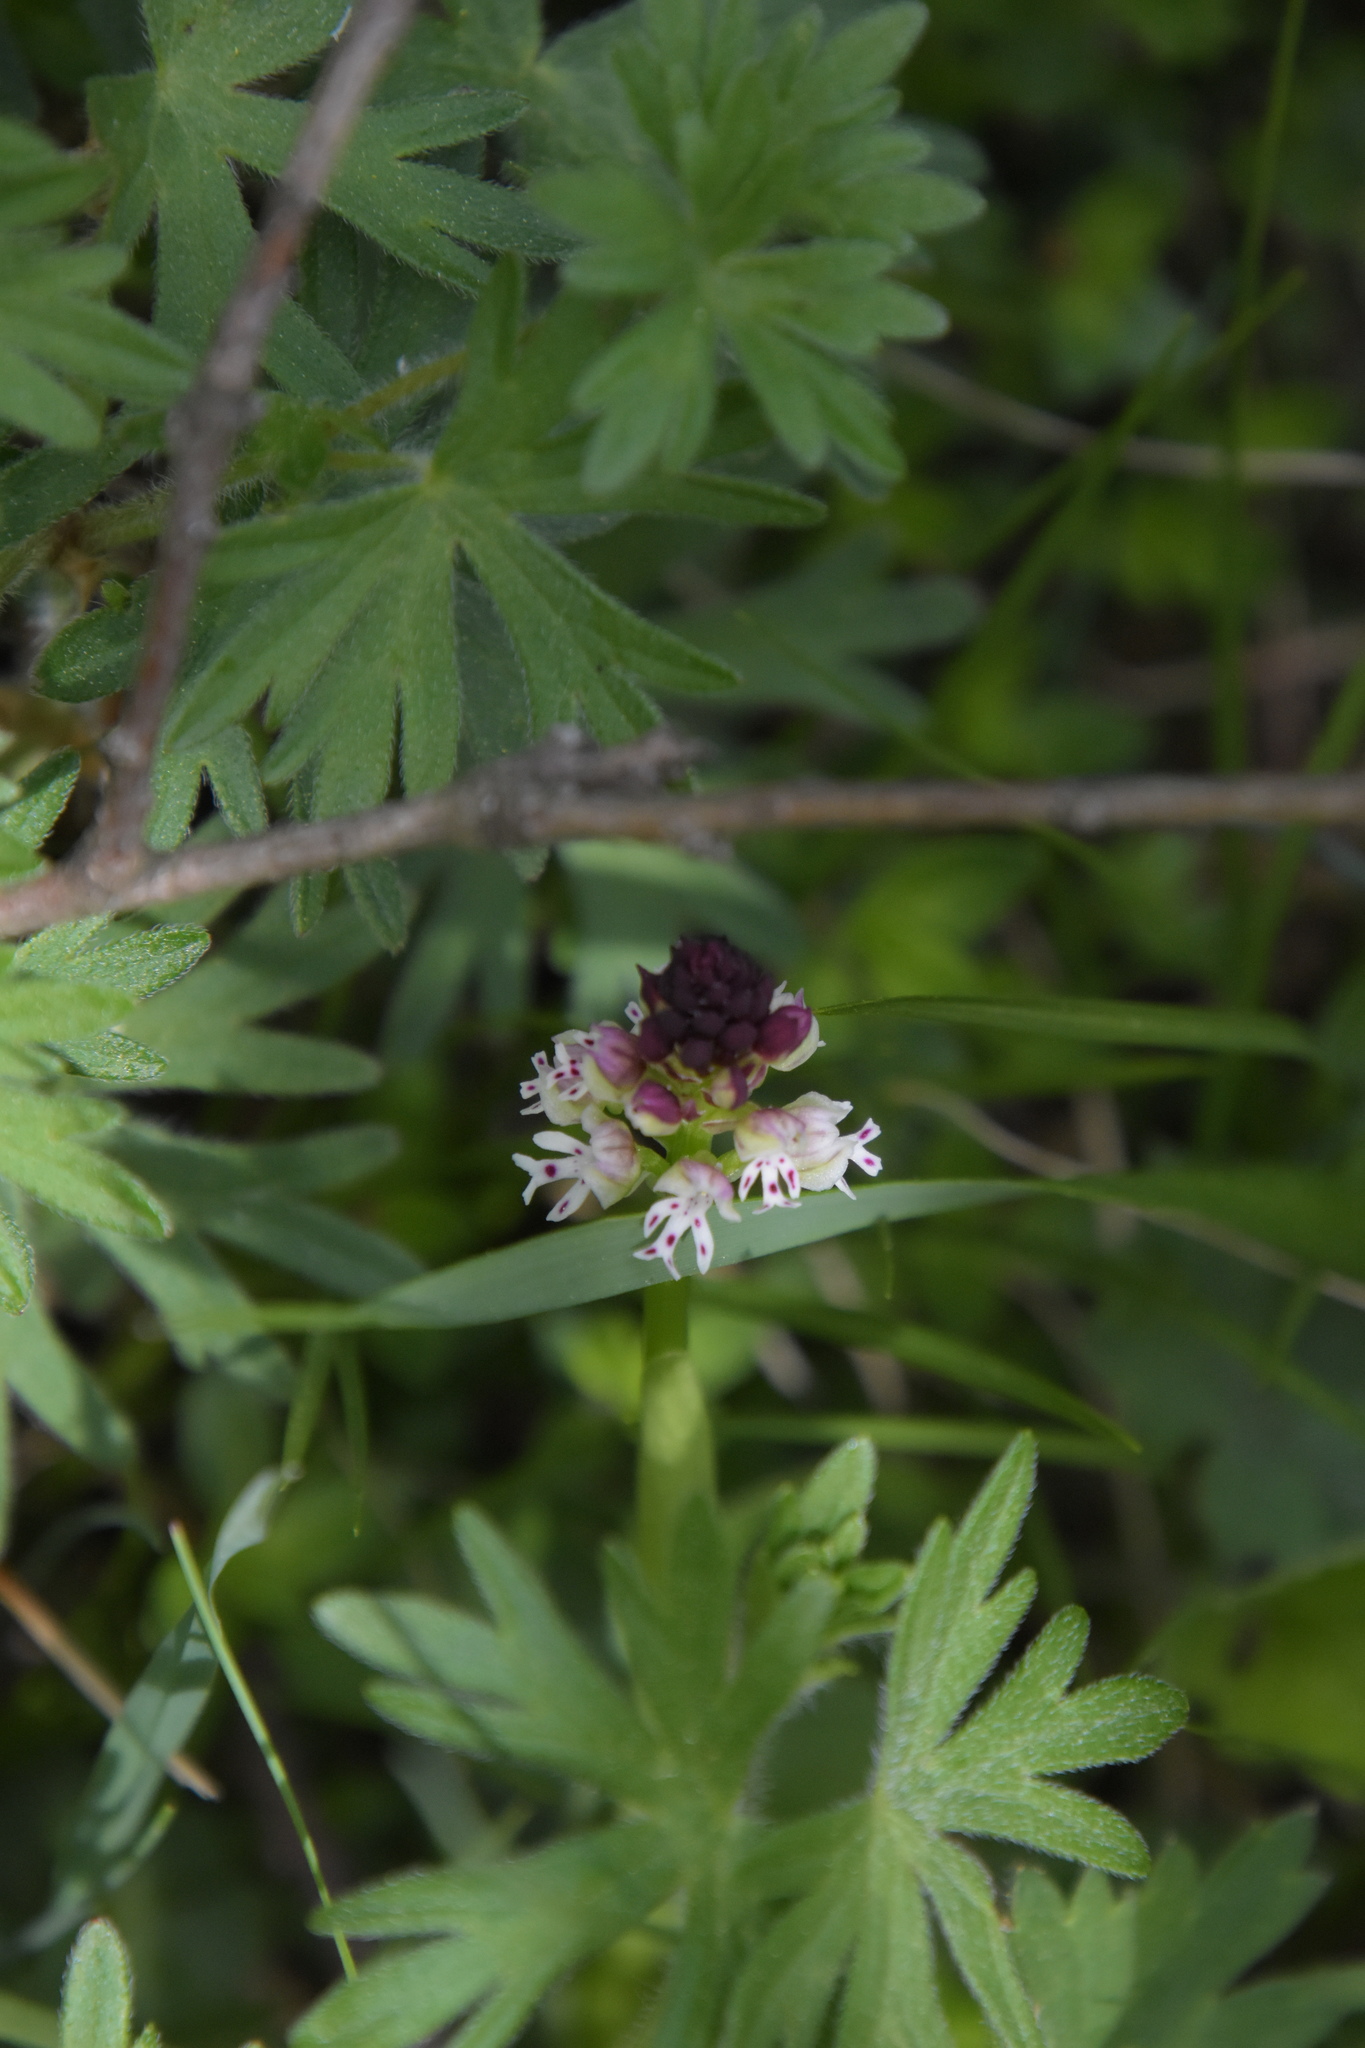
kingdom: Plantae
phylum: Tracheophyta
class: Liliopsida
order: Asparagales
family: Orchidaceae
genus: Neotinea
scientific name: Neotinea ustulata
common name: Burnt orchid
